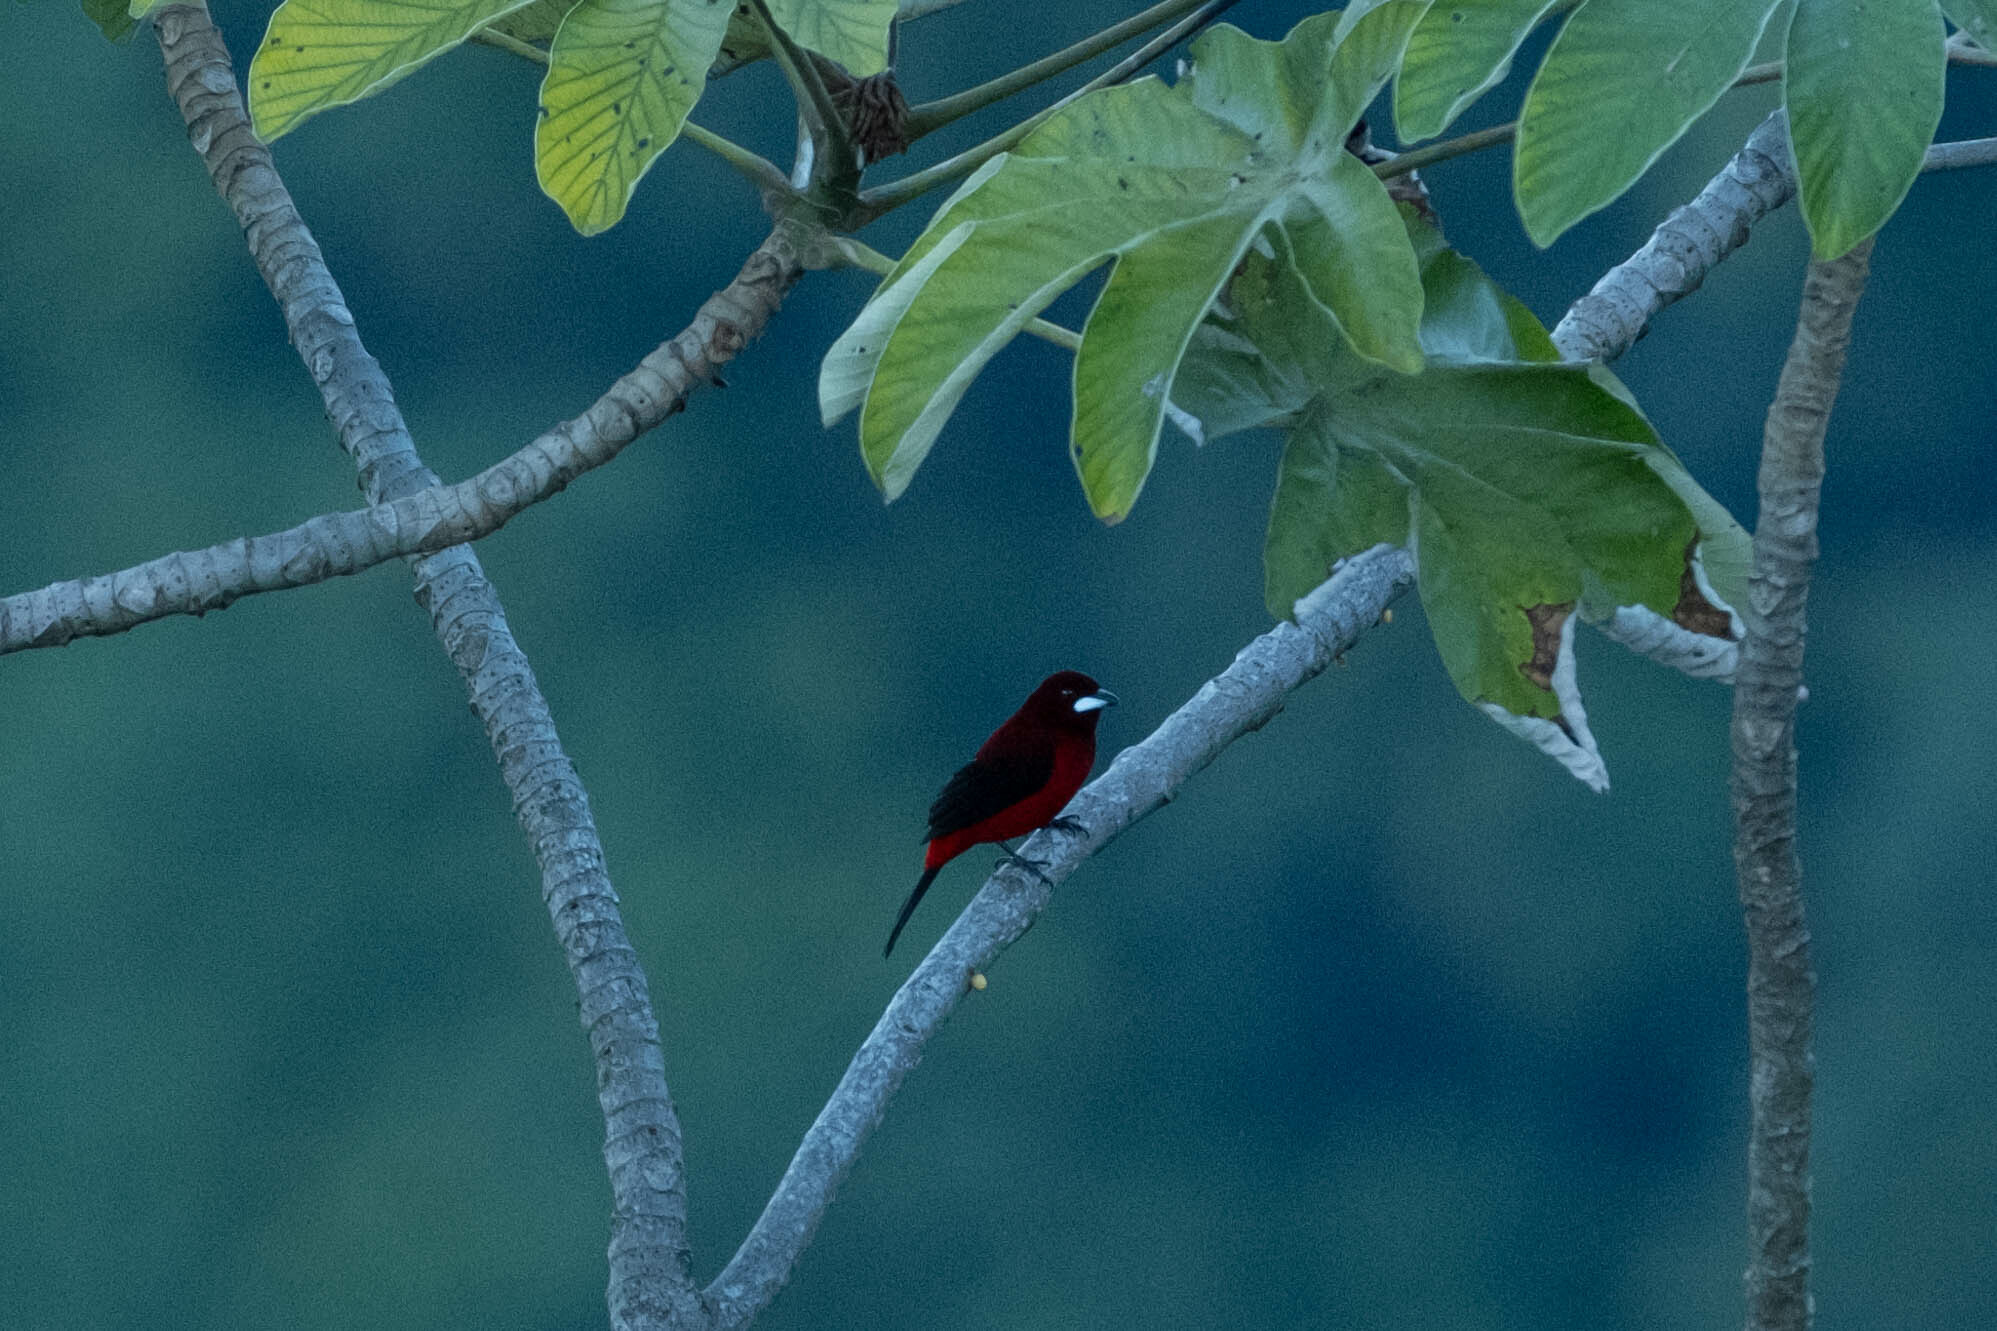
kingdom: Animalia
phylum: Chordata
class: Aves
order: Passeriformes
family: Thraupidae
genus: Ramphocelus
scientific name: Ramphocelus dimidiatus
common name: Crimson-backed tanager
